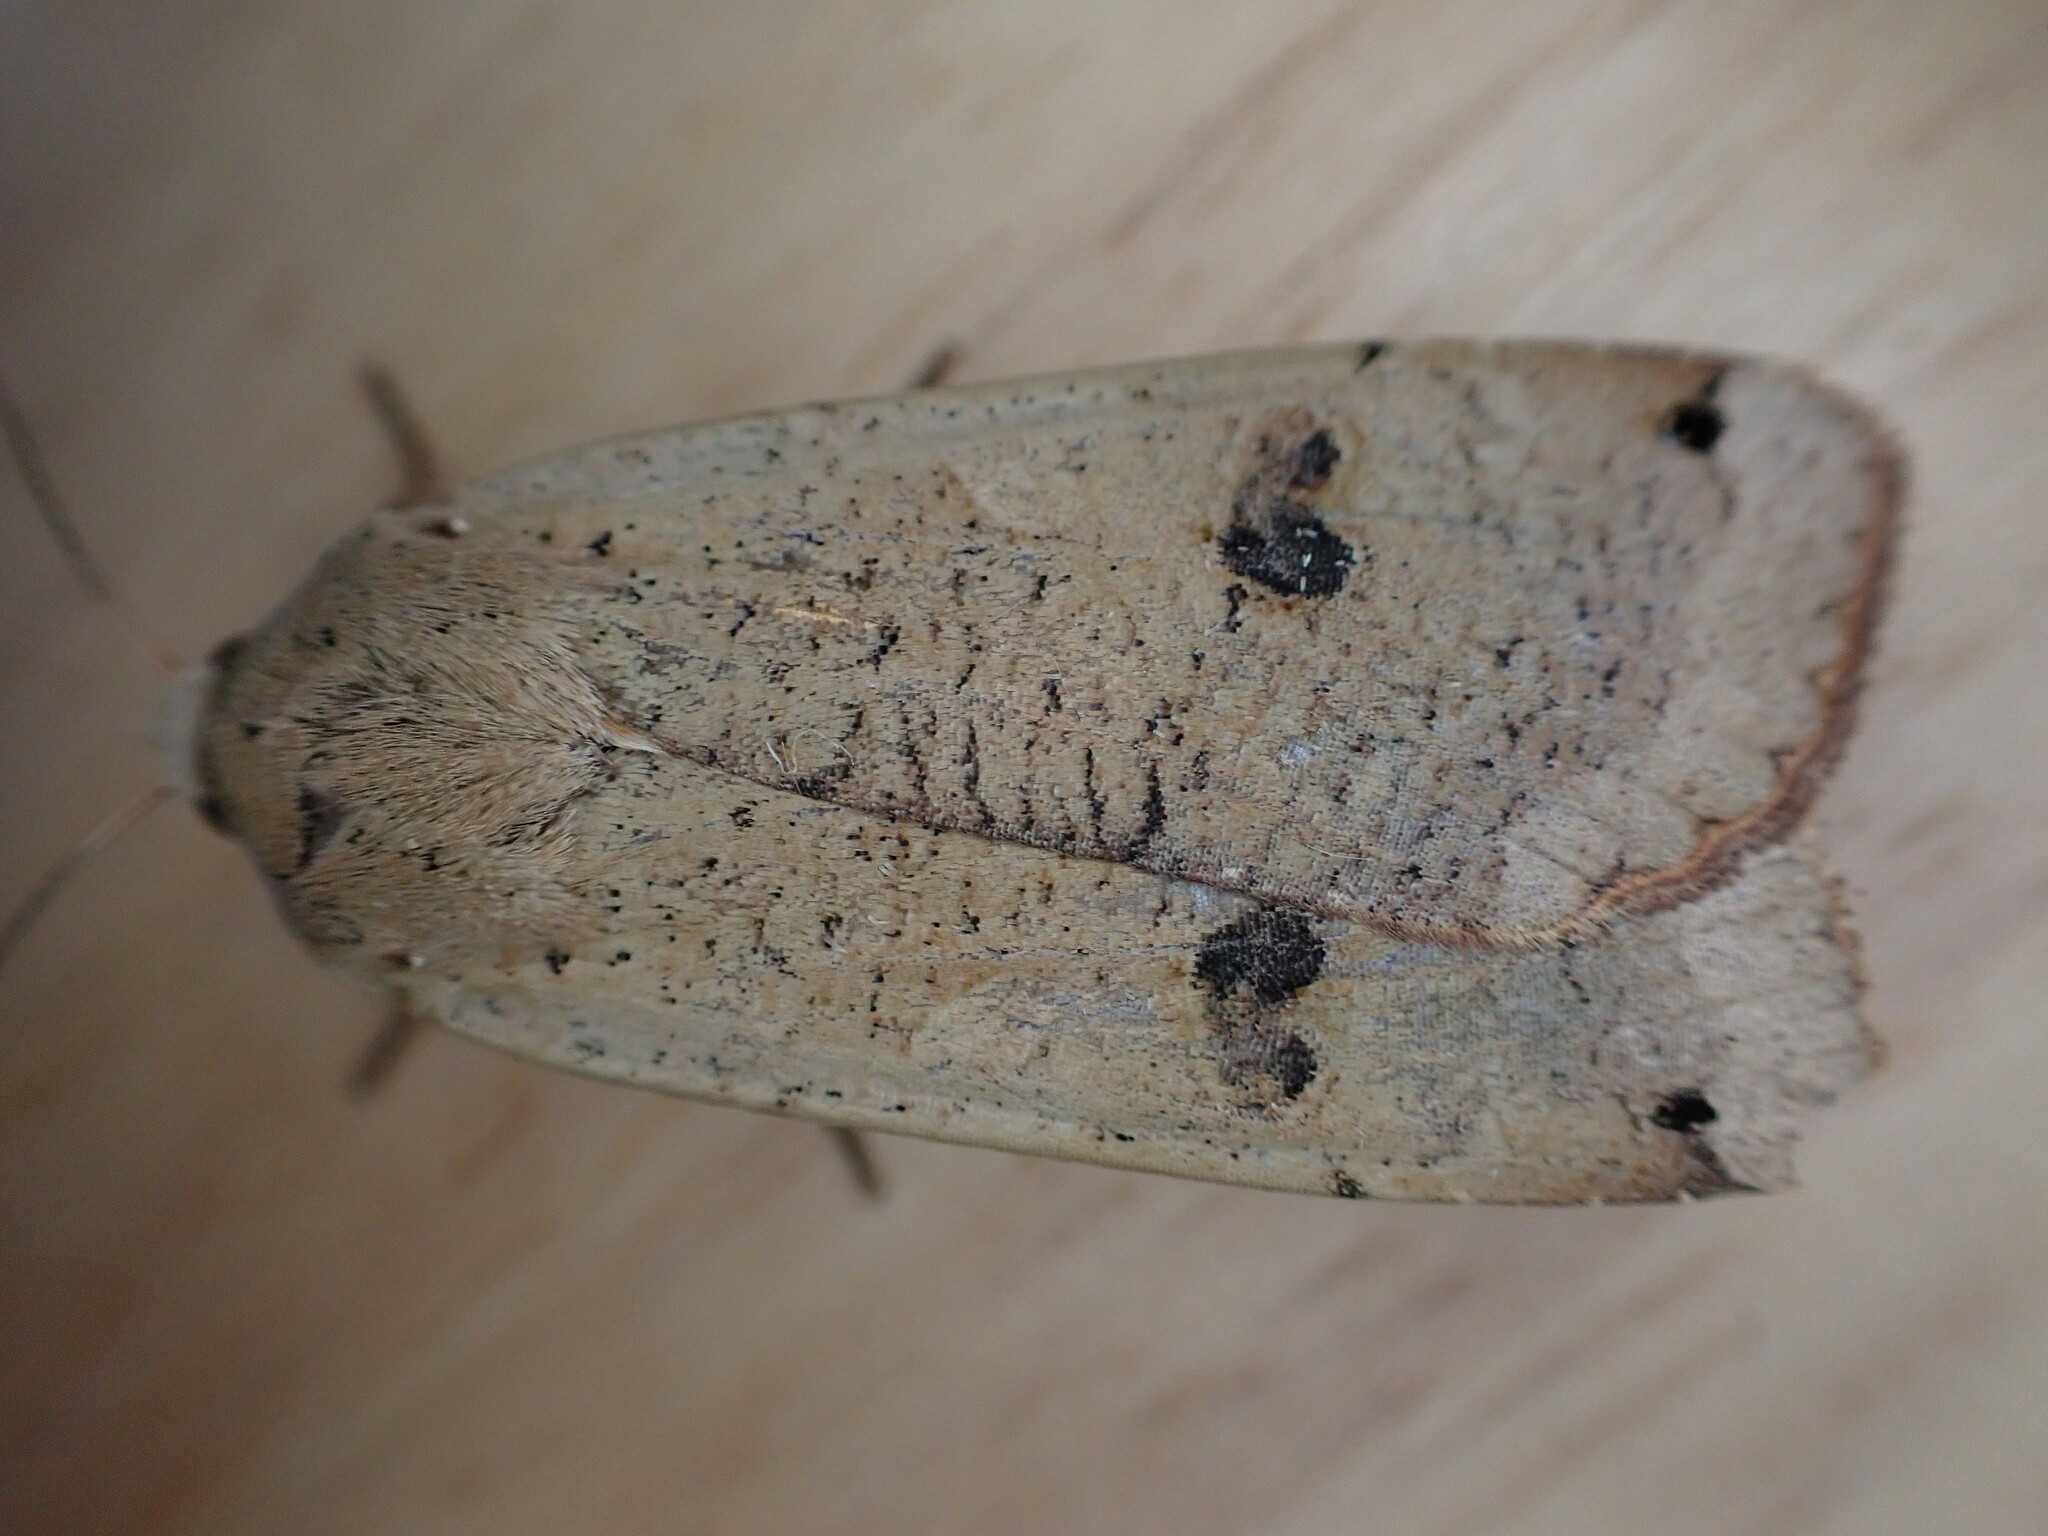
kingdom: Animalia
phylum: Arthropoda
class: Insecta
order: Lepidoptera
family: Noctuidae
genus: Noctua
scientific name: Noctua pronuba
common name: Large yellow underwing
